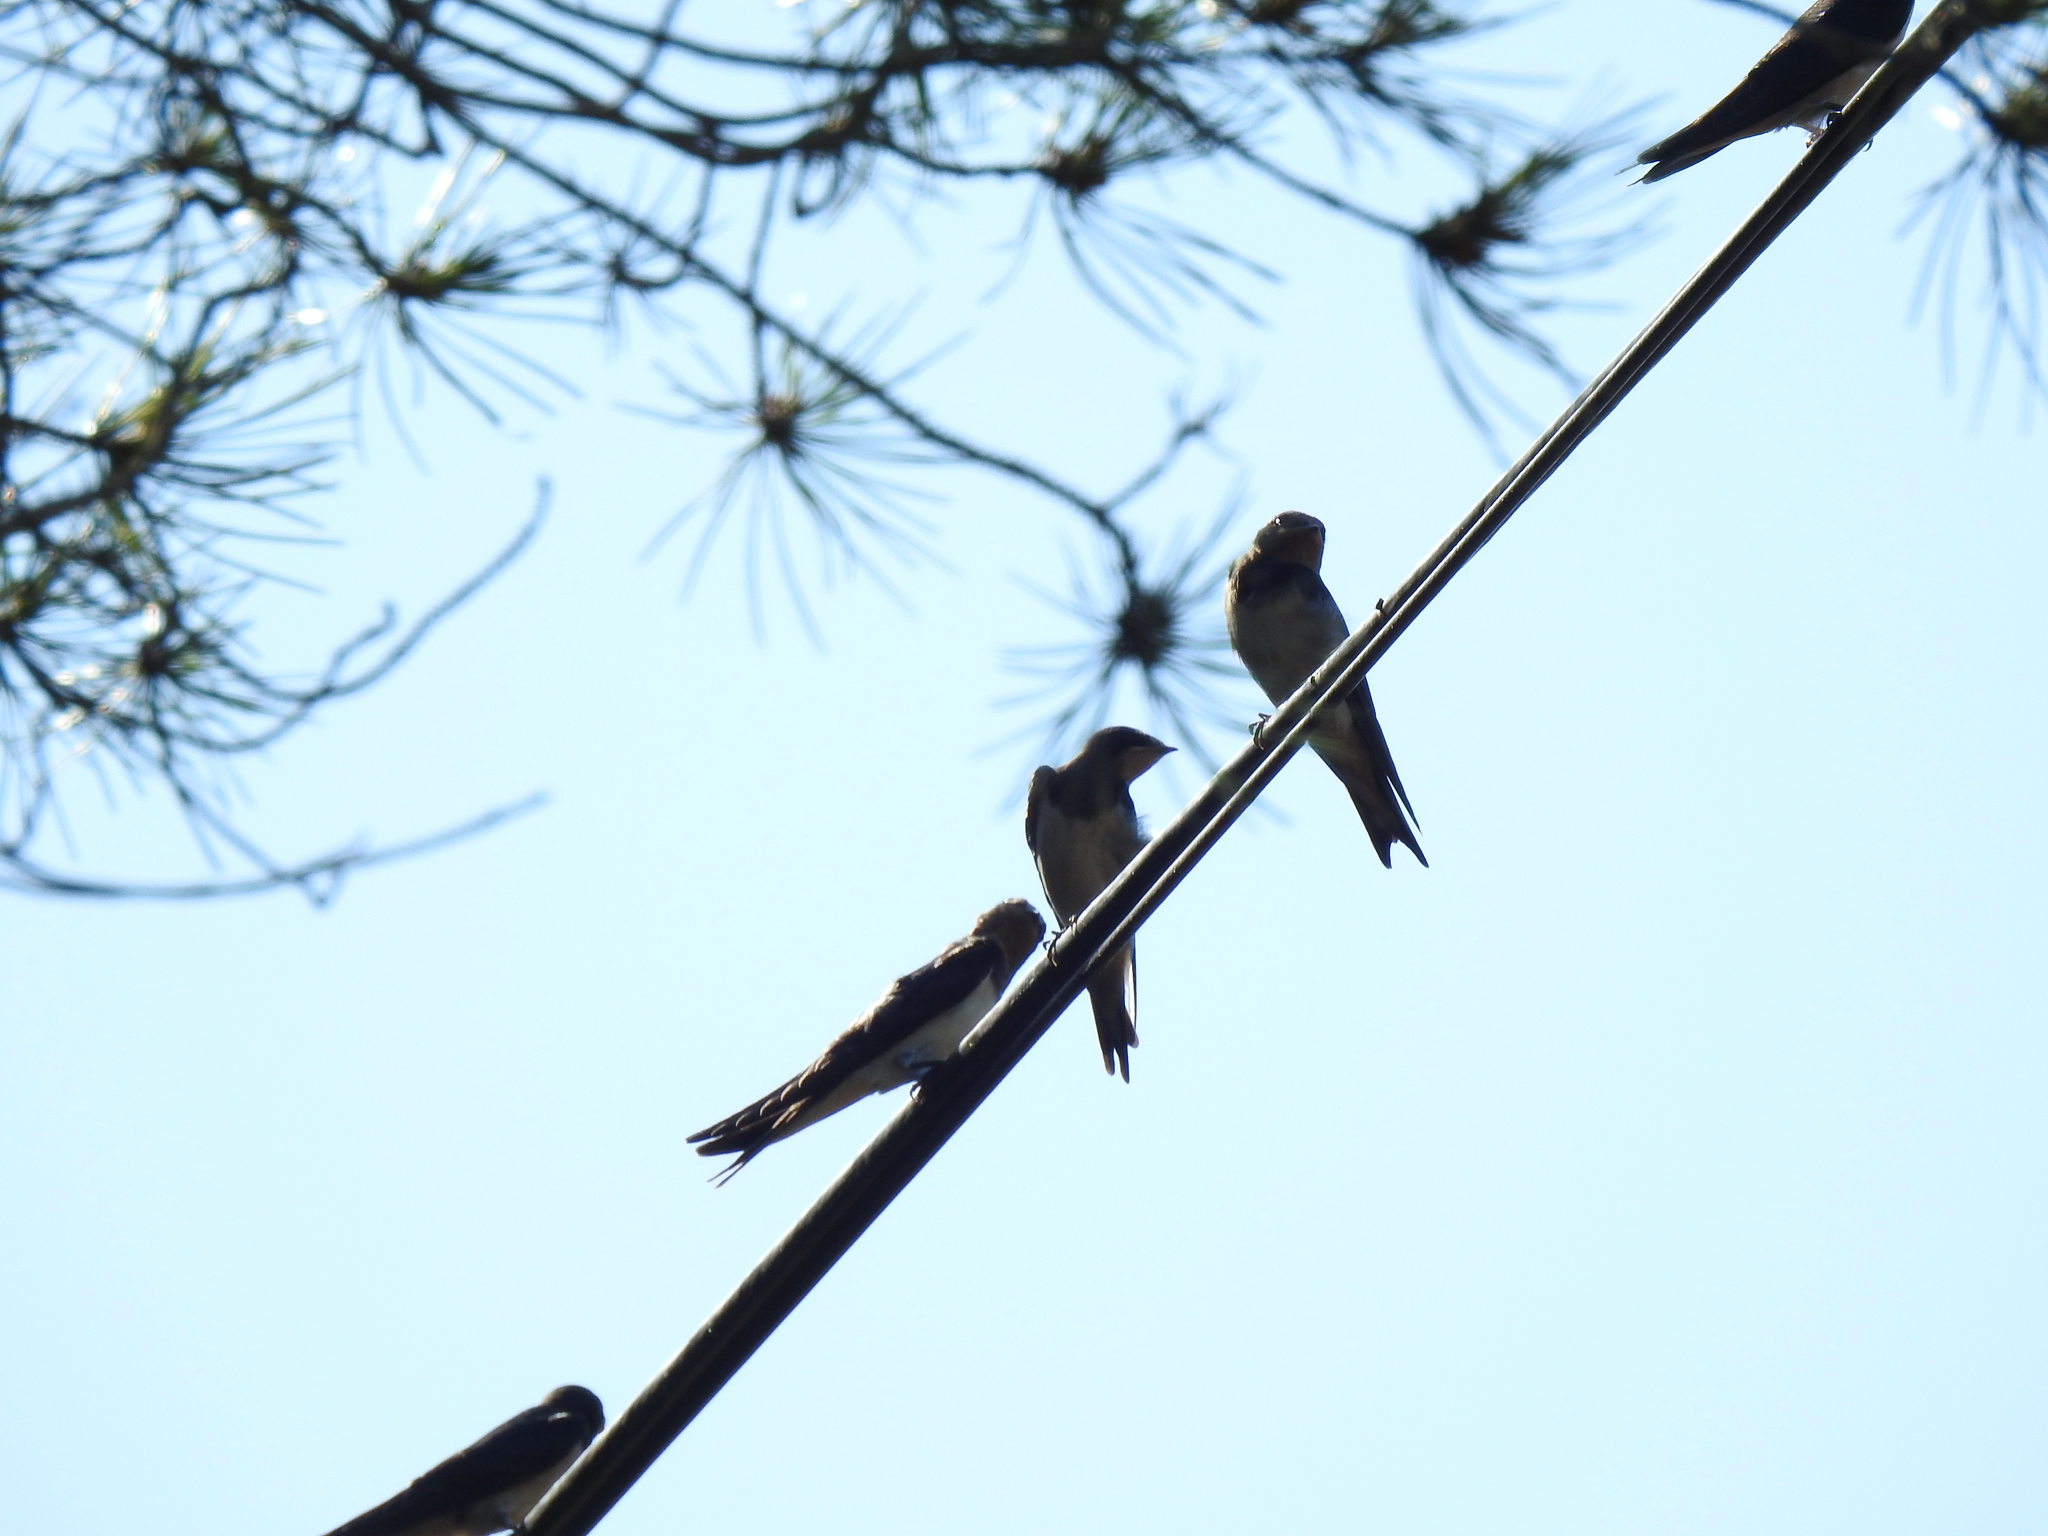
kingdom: Animalia
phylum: Chordata
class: Aves
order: Passeriformes
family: Hirundinidae
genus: Hirundo
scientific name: Hirundo rustica
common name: Barn swallow
